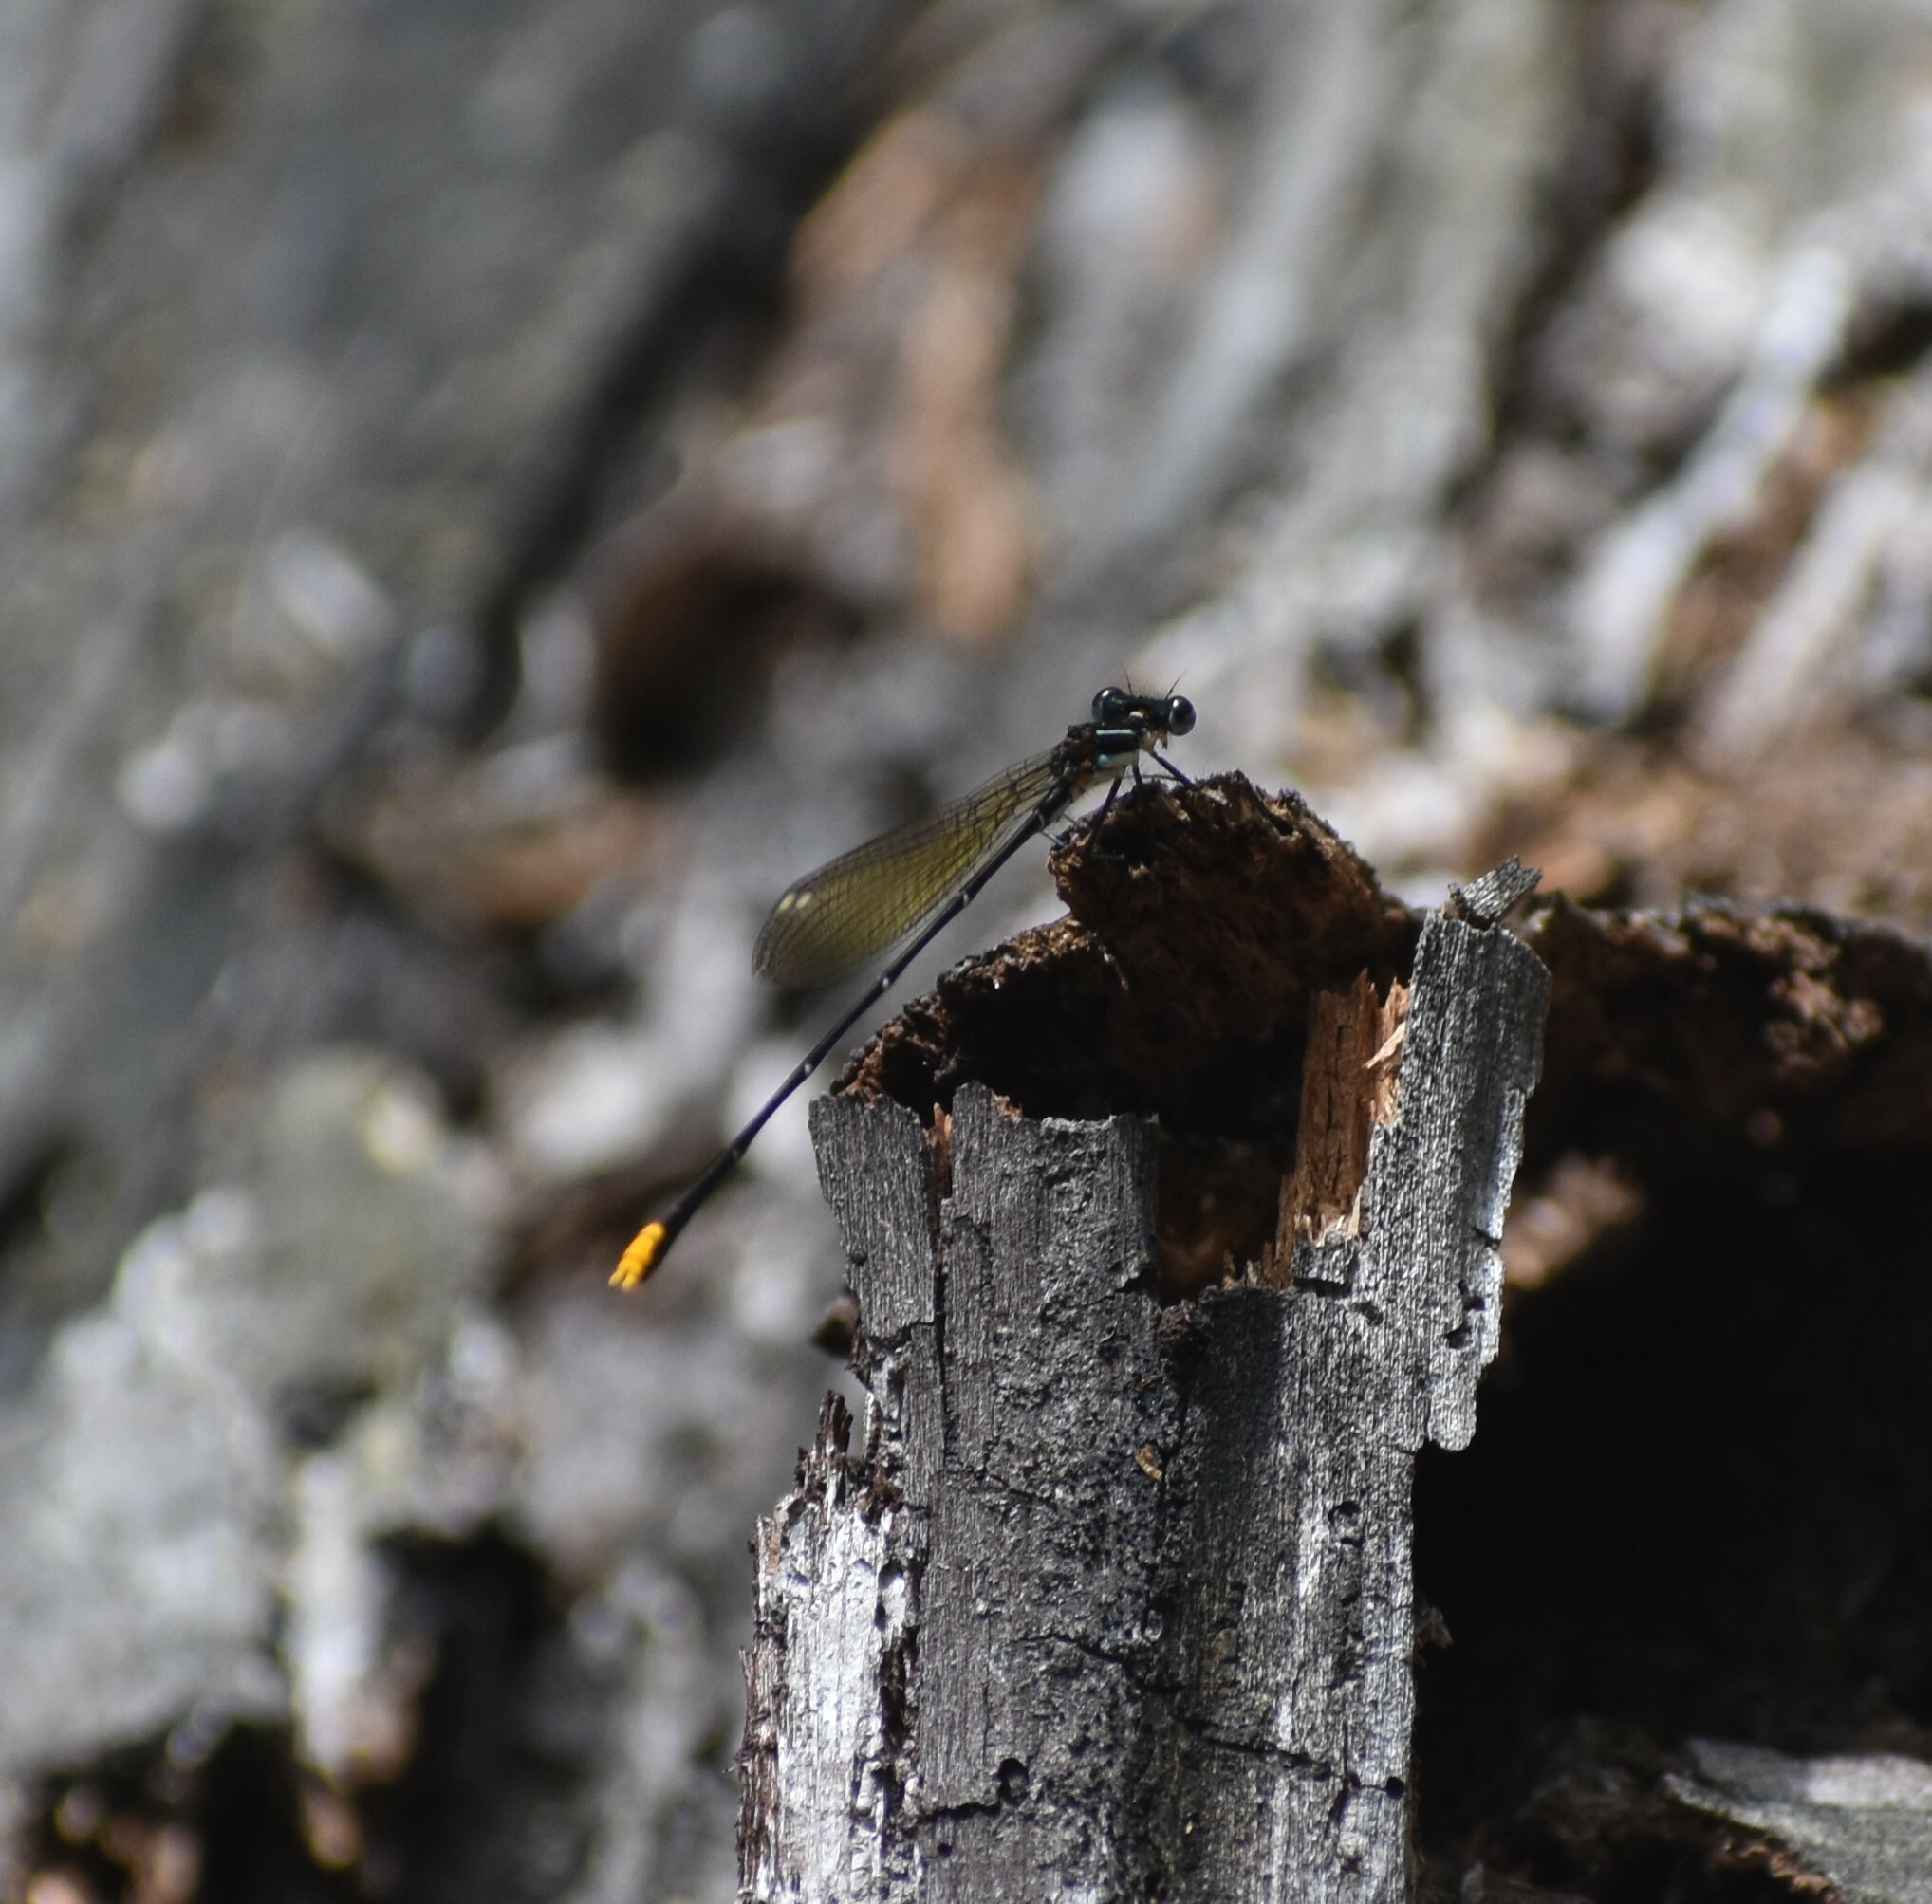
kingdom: Animalia
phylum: Arthropoda
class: Insecta
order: Odonata
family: Platycnemididae
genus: Allocnemis
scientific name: Allocnemis leucosticta
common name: Goldtail
